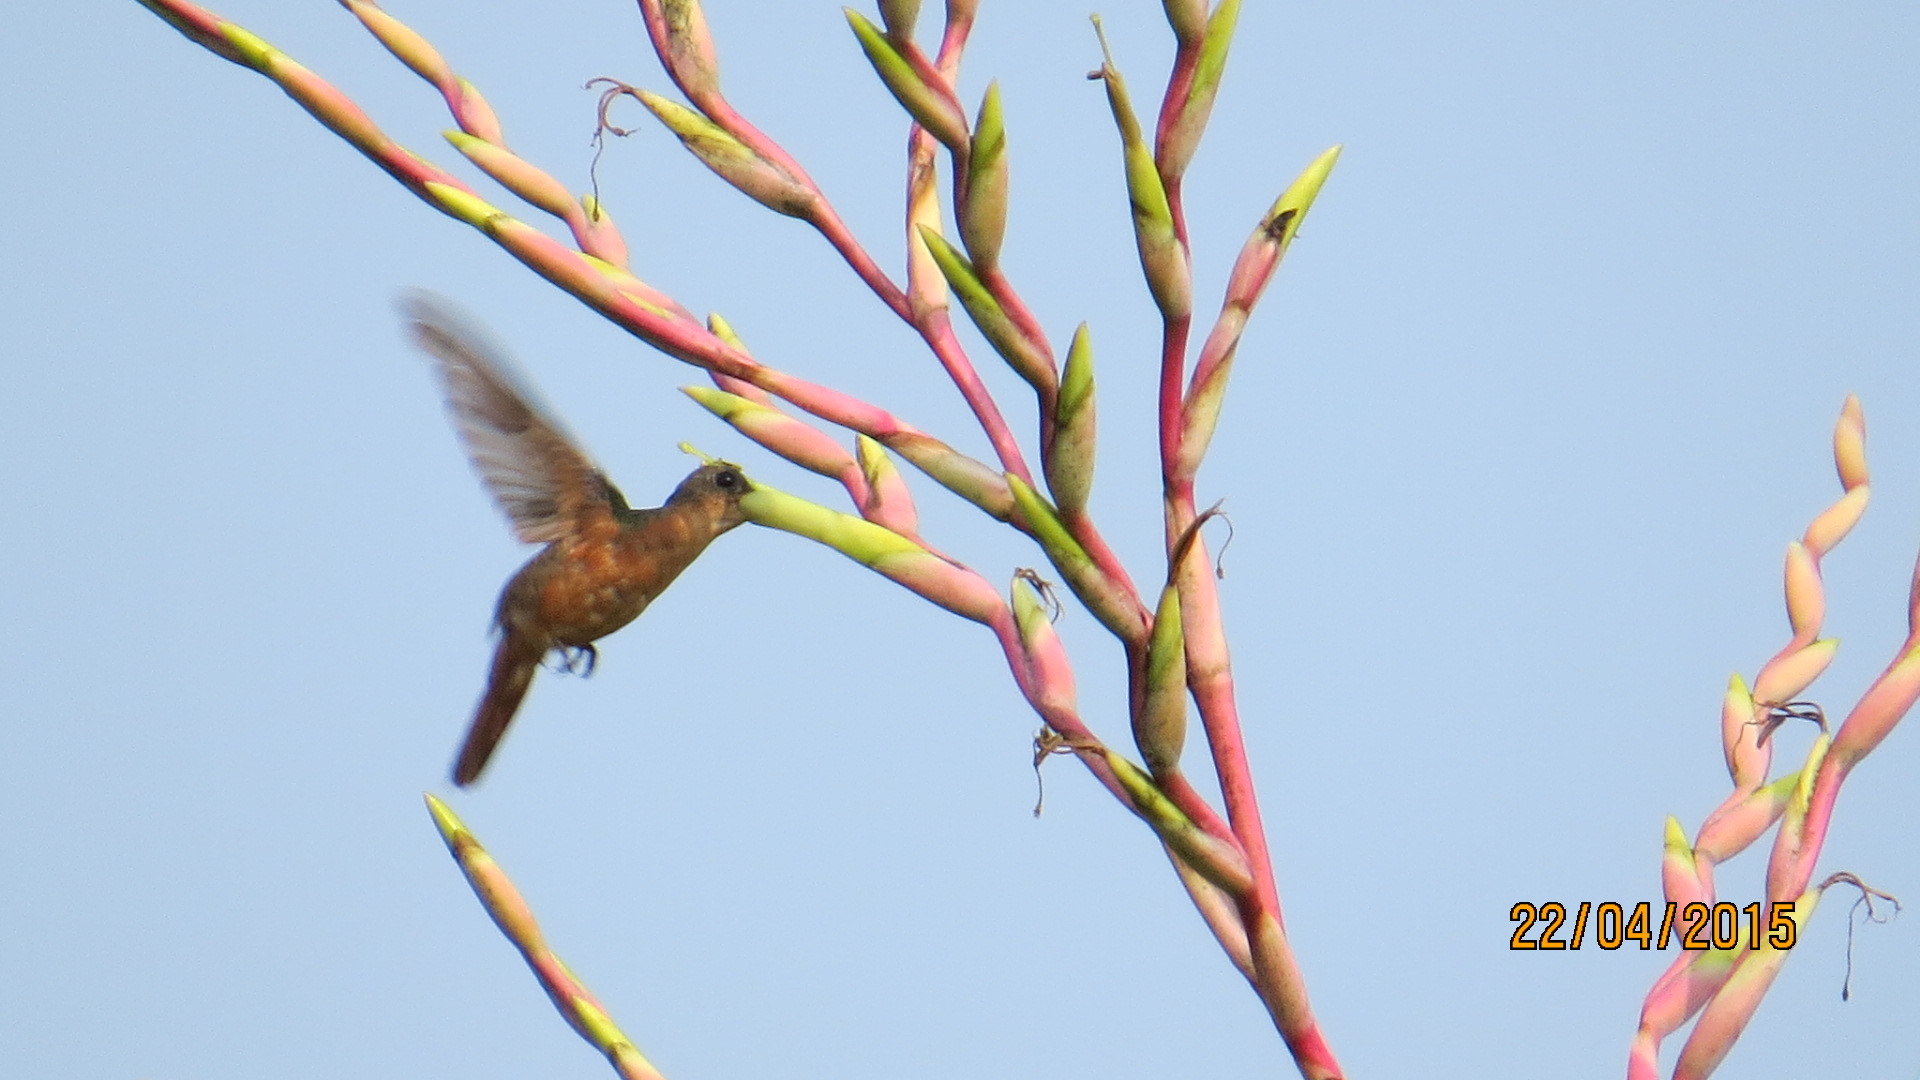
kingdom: Animalia
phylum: Chordata
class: Aves
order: Apodiformes
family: Trochilidae
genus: Amazilia
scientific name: Amazilia rutila
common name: Cinnamon hummingbird
